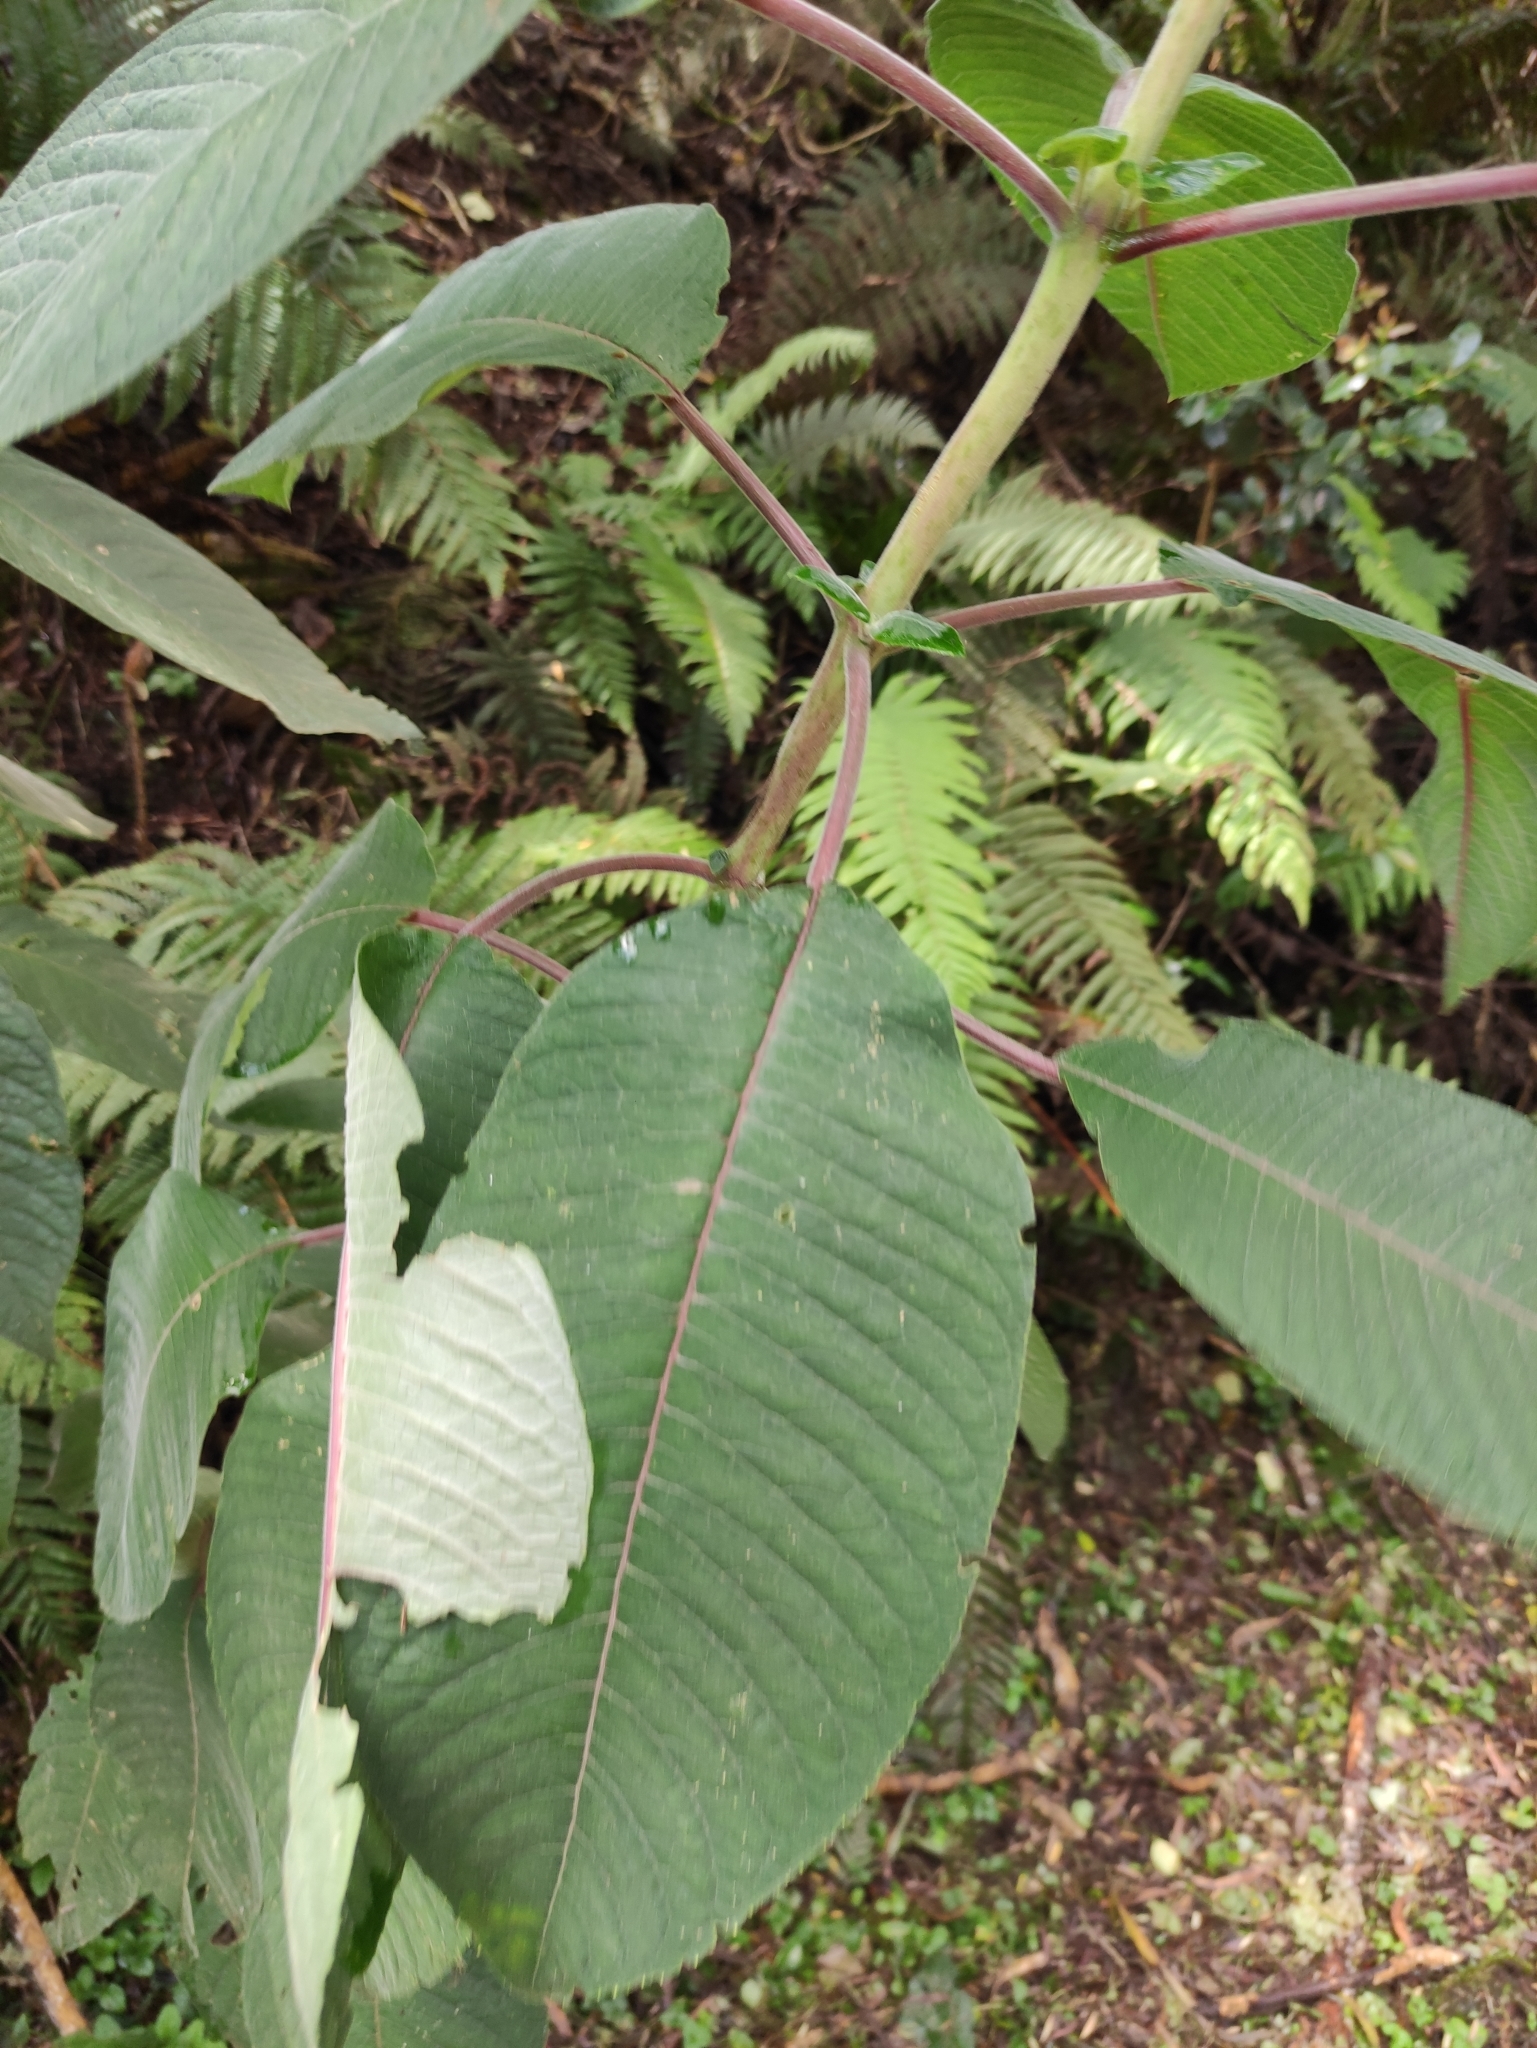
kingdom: Plantae
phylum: Tracheophyta
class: Magnoliopsida
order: Myrtales
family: Onagraceae
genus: Fuchsia
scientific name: Fuchsia boliviana
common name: Bolivian fuchsia
